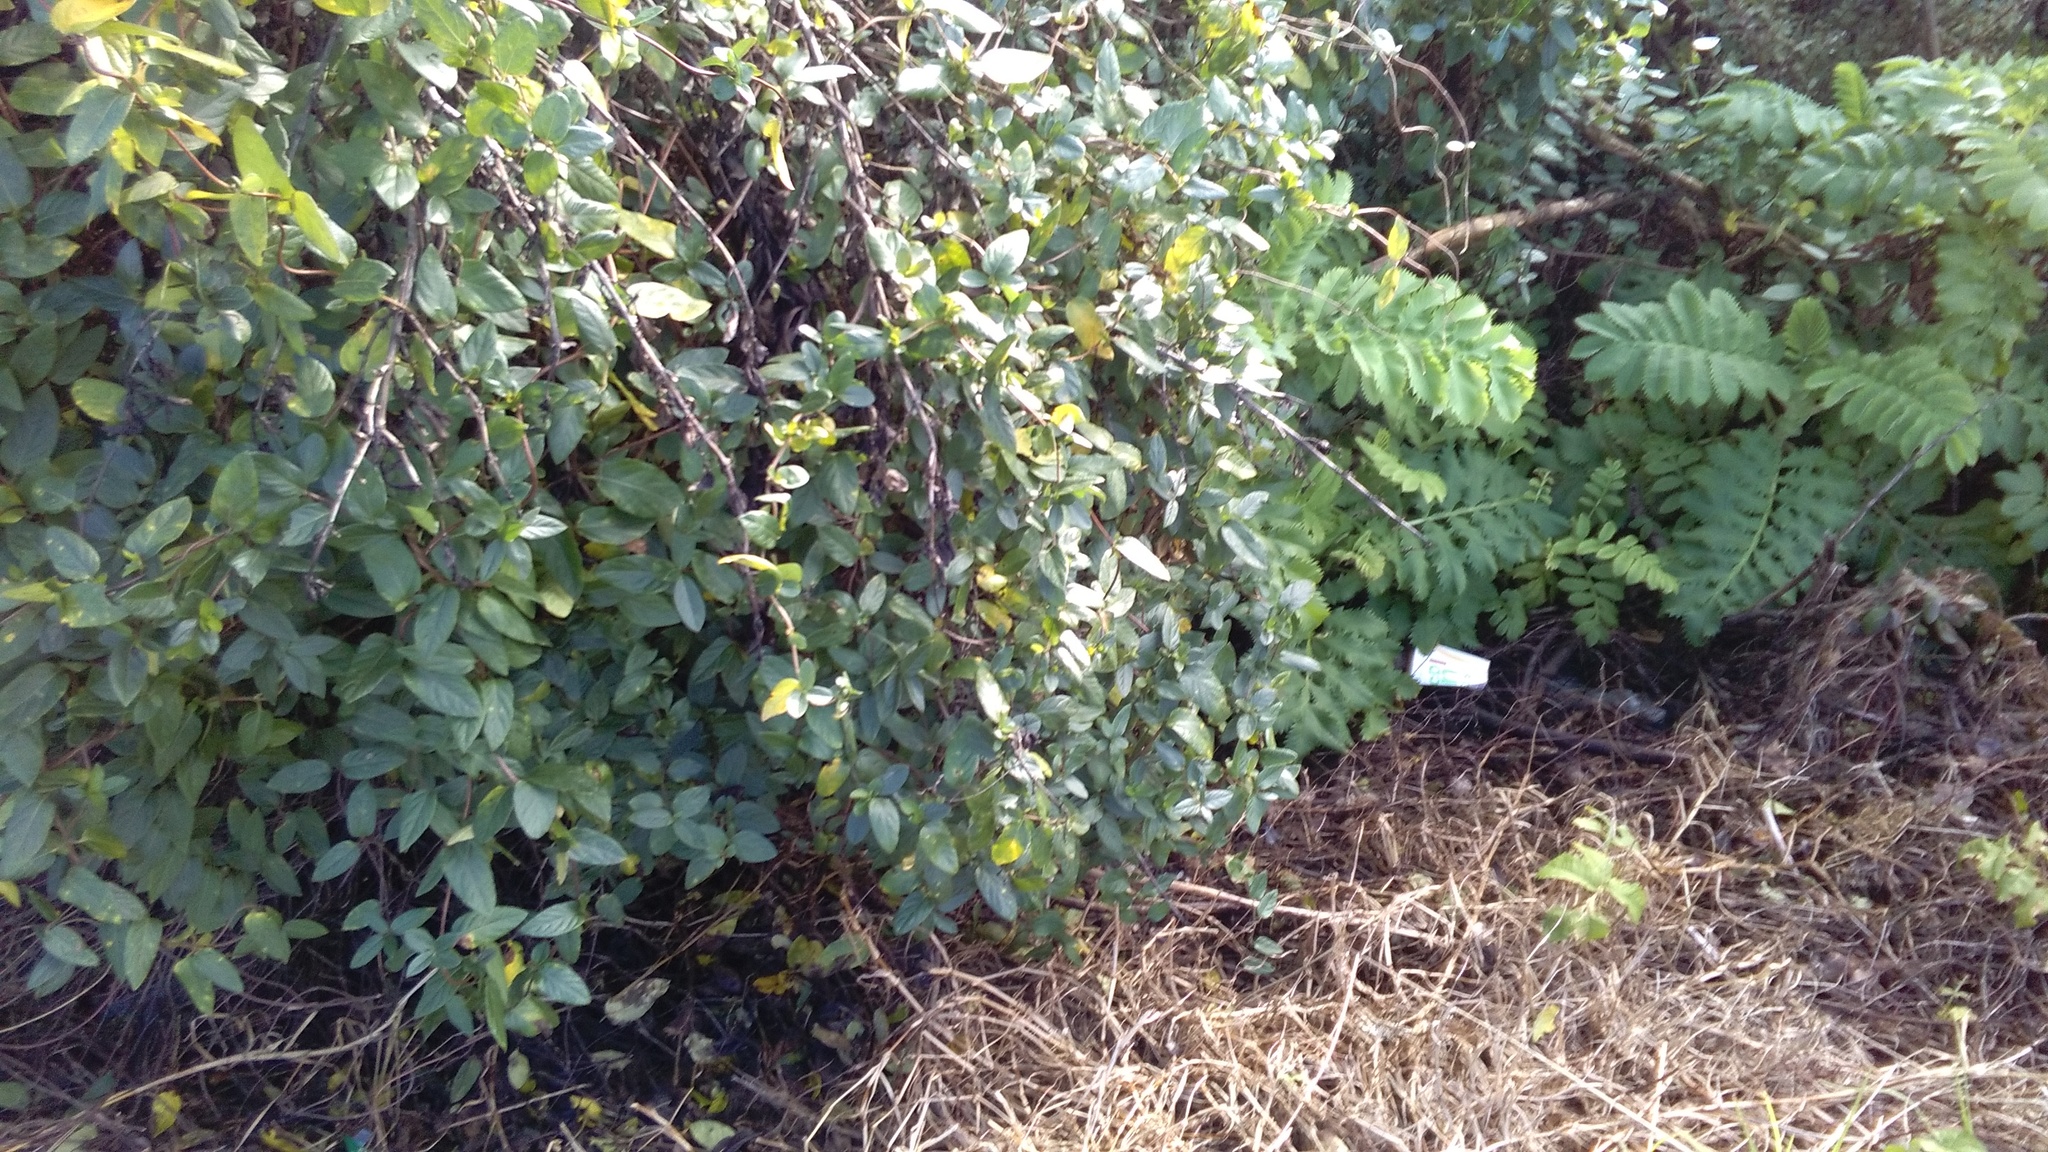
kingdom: Plantae
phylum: Tracheophyta
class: Magnoliopsida
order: Gentianales
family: Rubiaceae
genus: Coprosma
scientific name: Coprosma robusta
